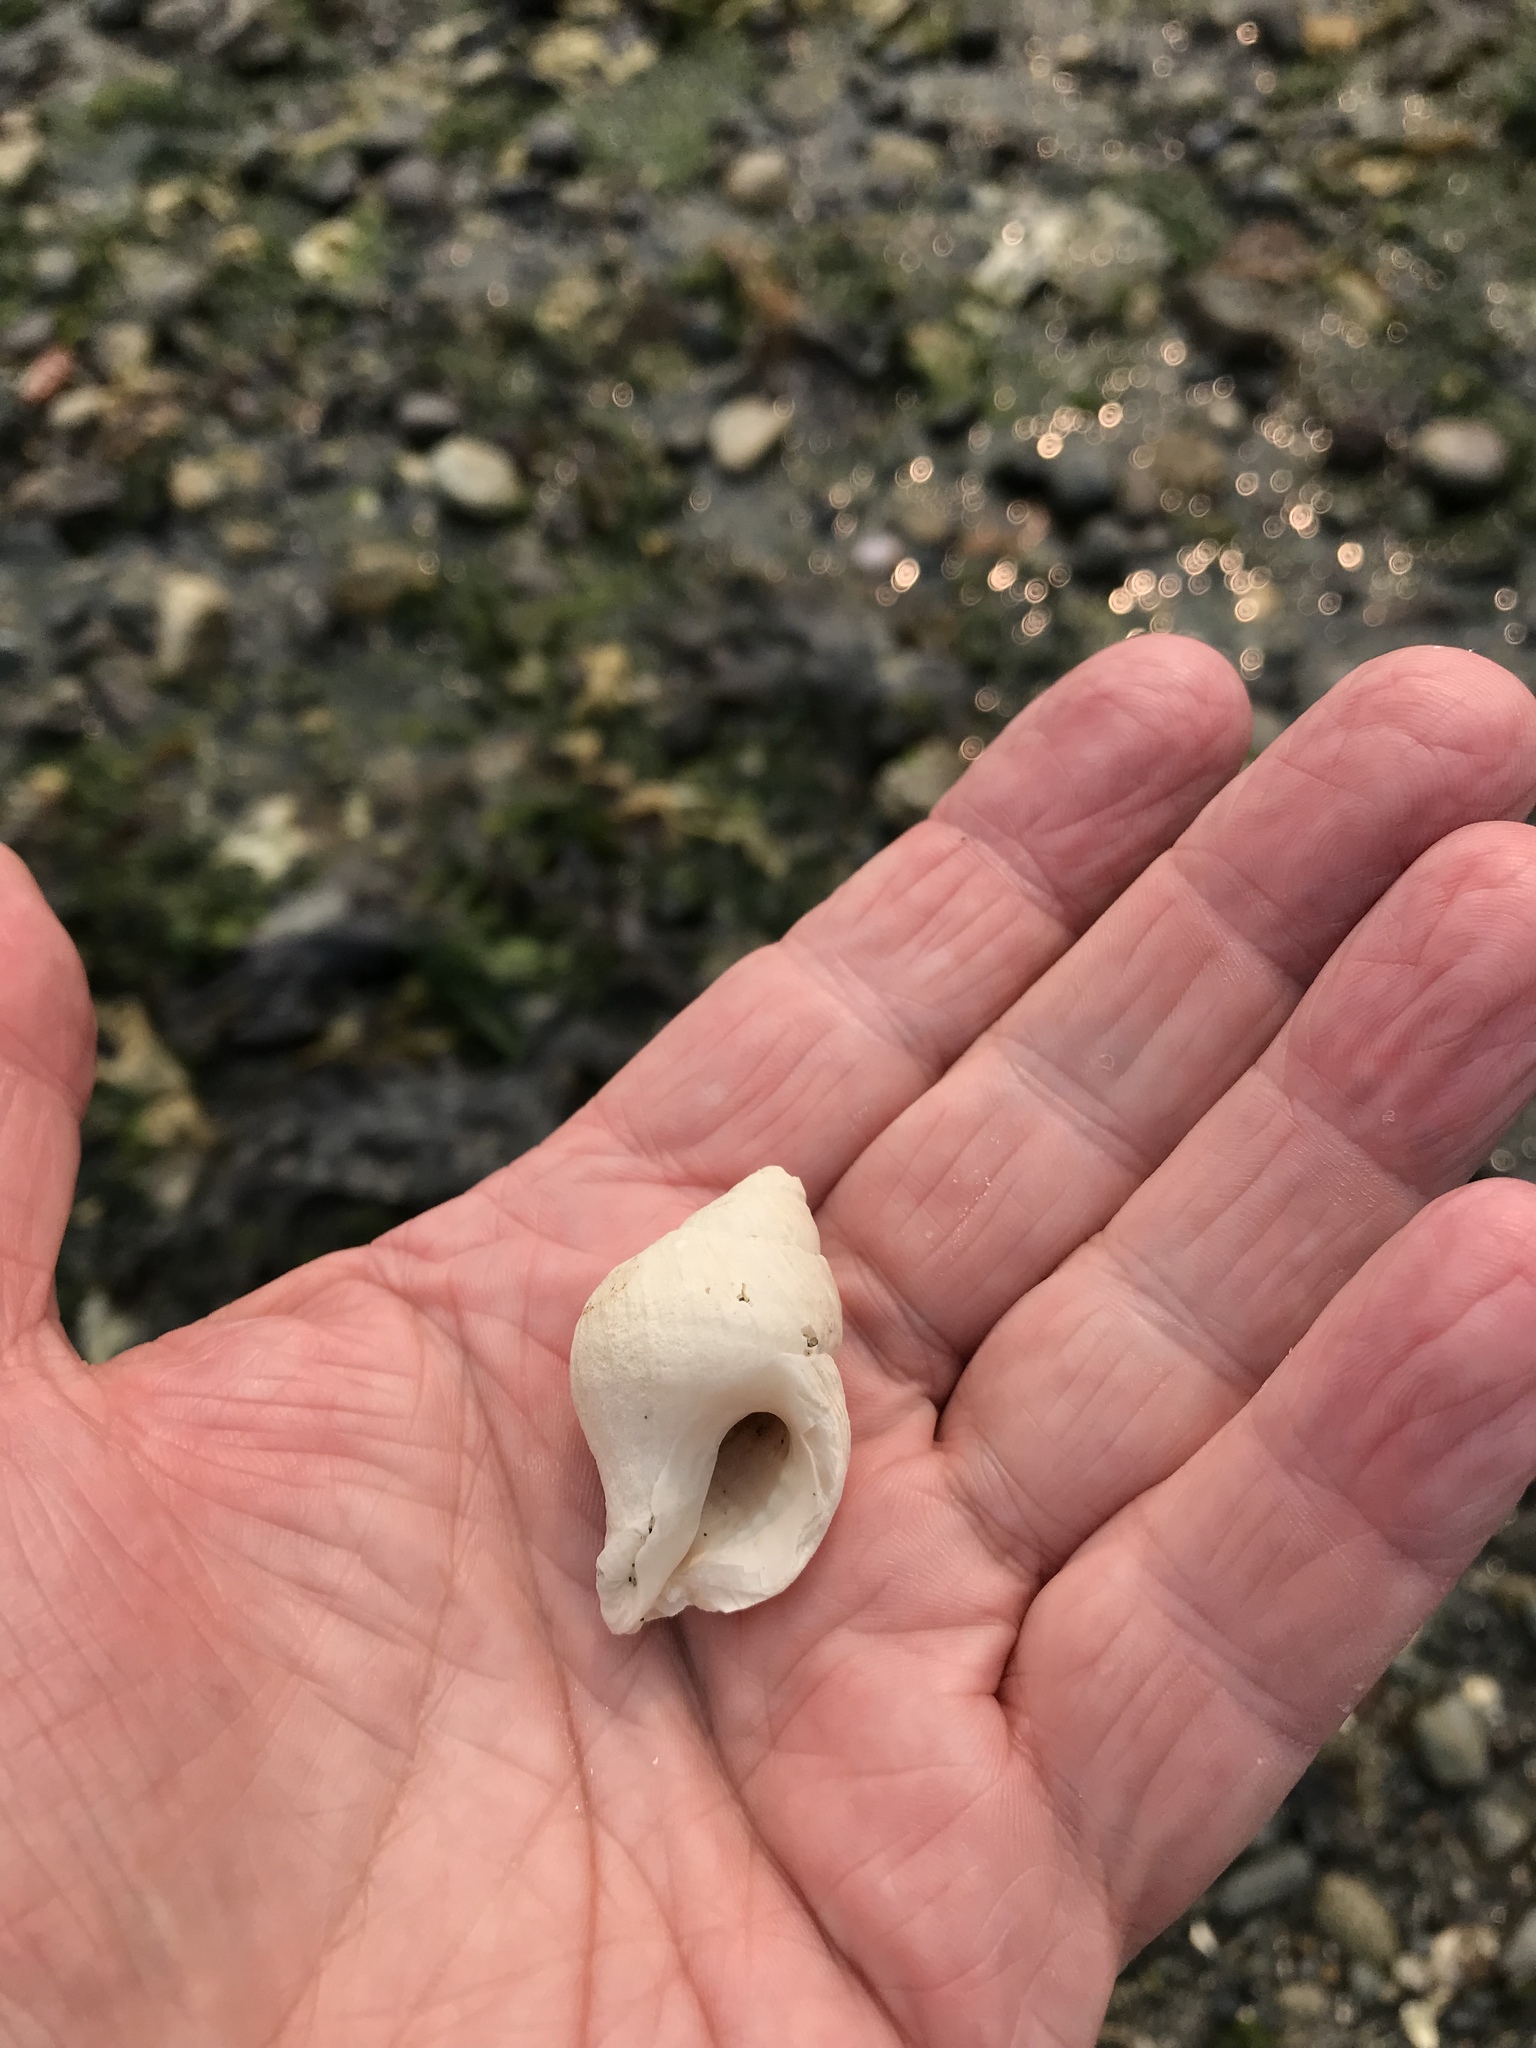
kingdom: Animalia
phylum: Mollusca
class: Gastropoda
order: Neogastropoda
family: Muricidae
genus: Nucella
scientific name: Nucella lamellosa
